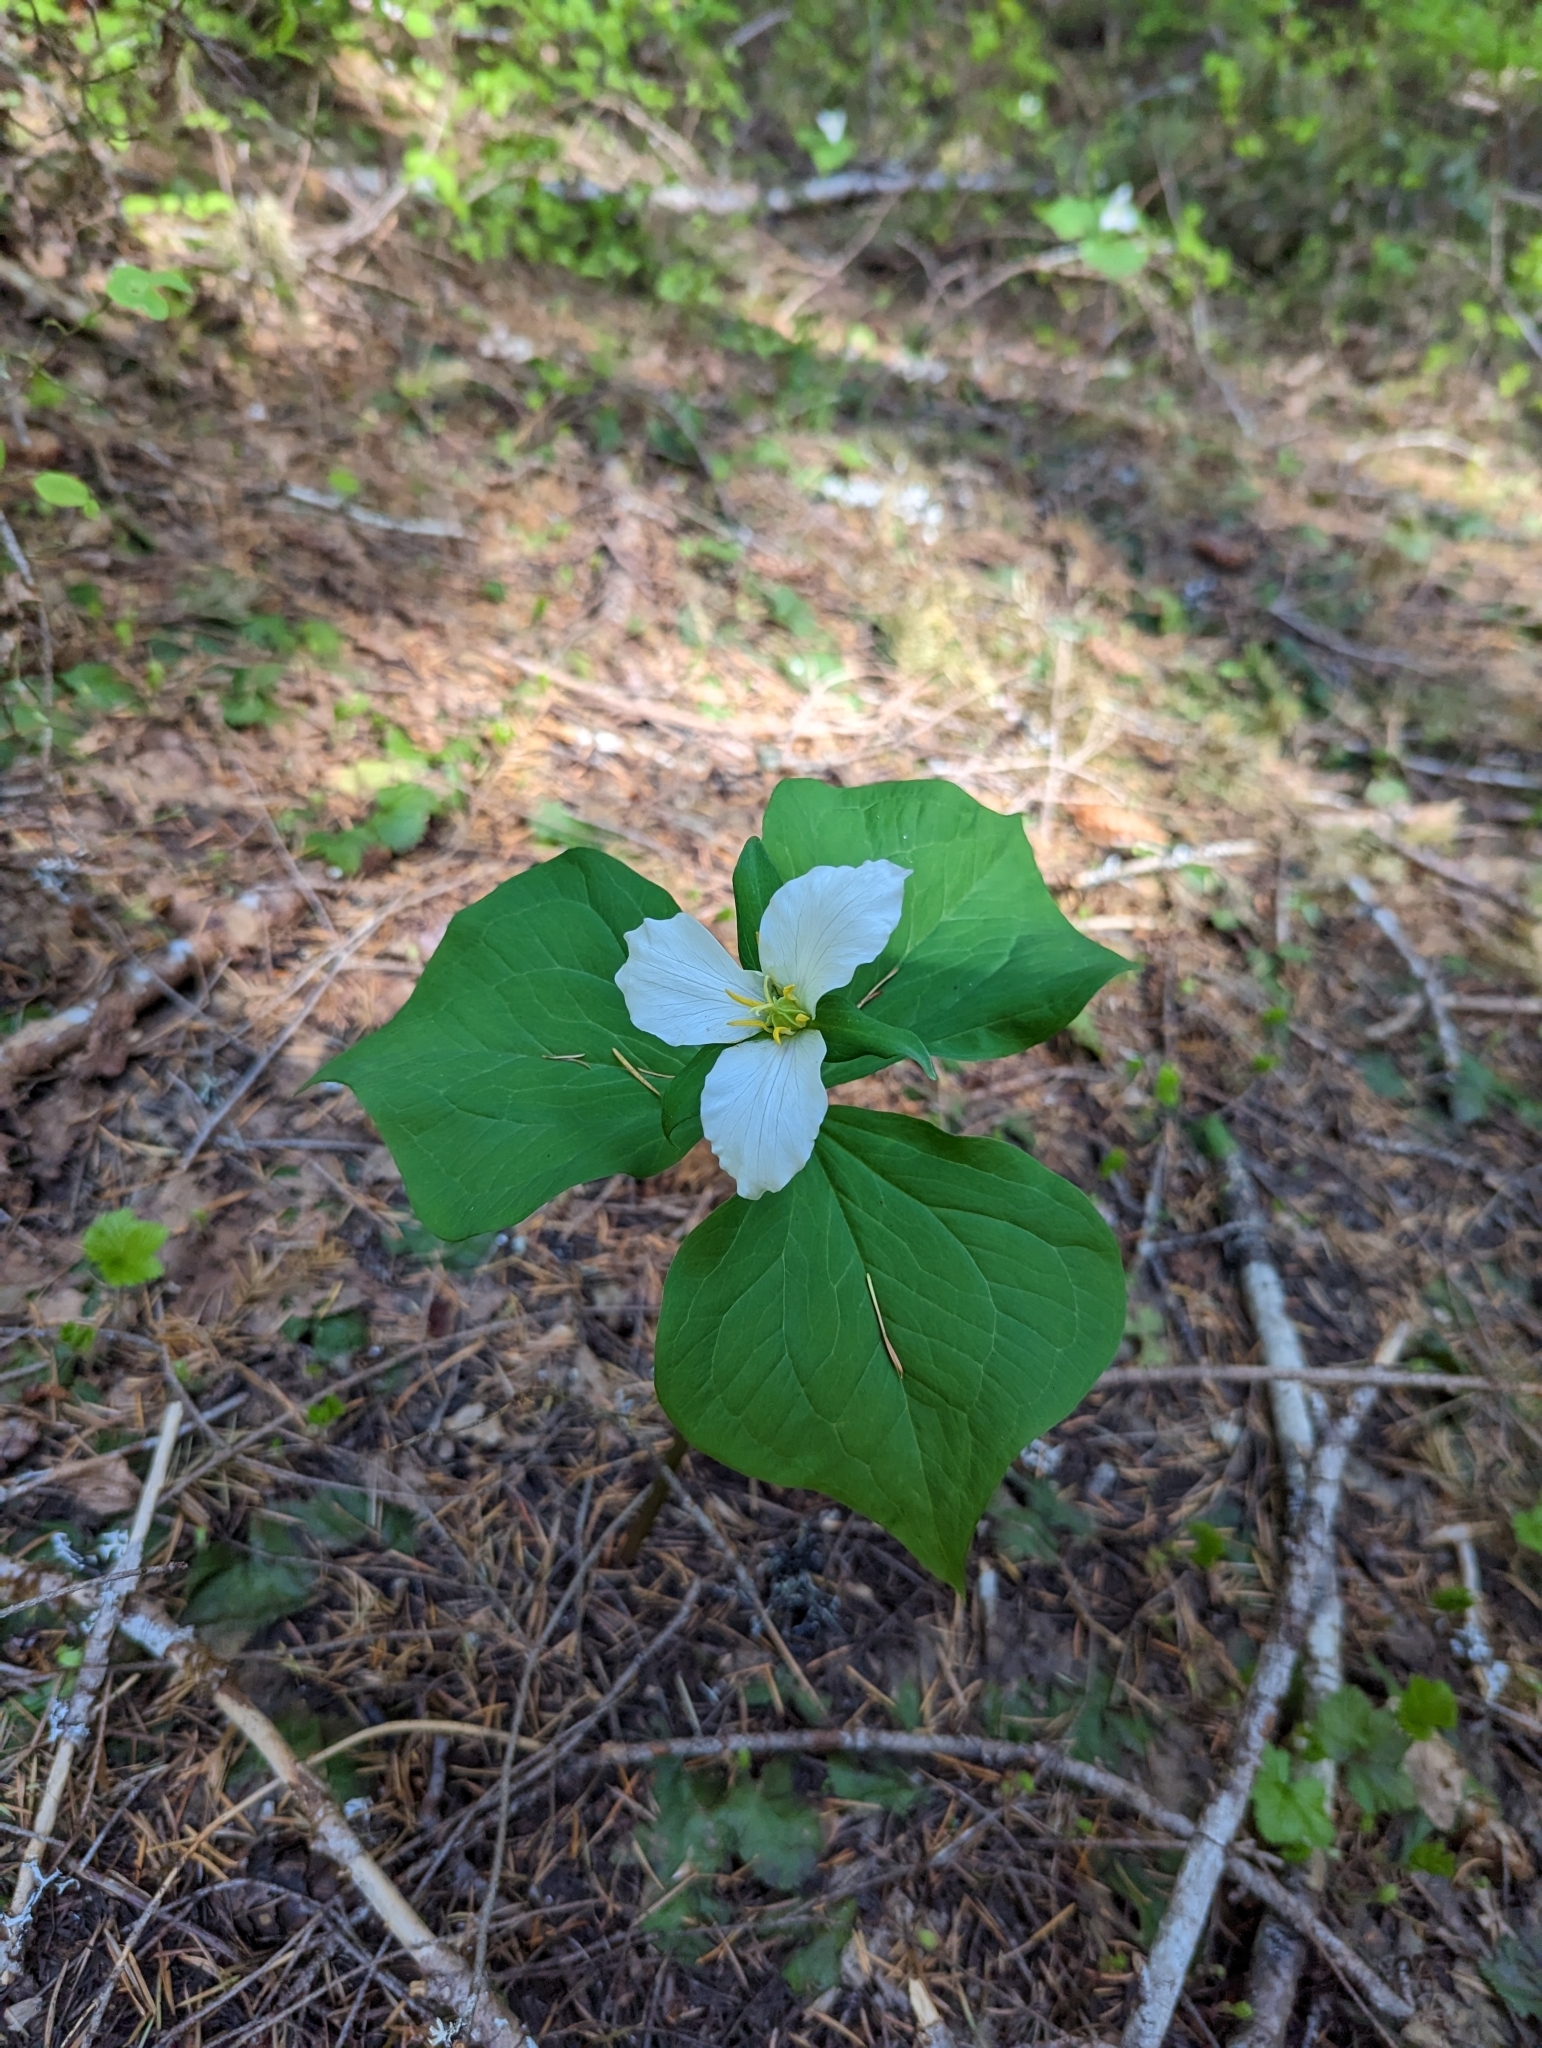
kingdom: Plantae
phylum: Tracheophyta
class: Liliopsida
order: Liliales
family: Melanthiaceae
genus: Trillium
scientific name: Trillium ovatum
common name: Pacific trillium
